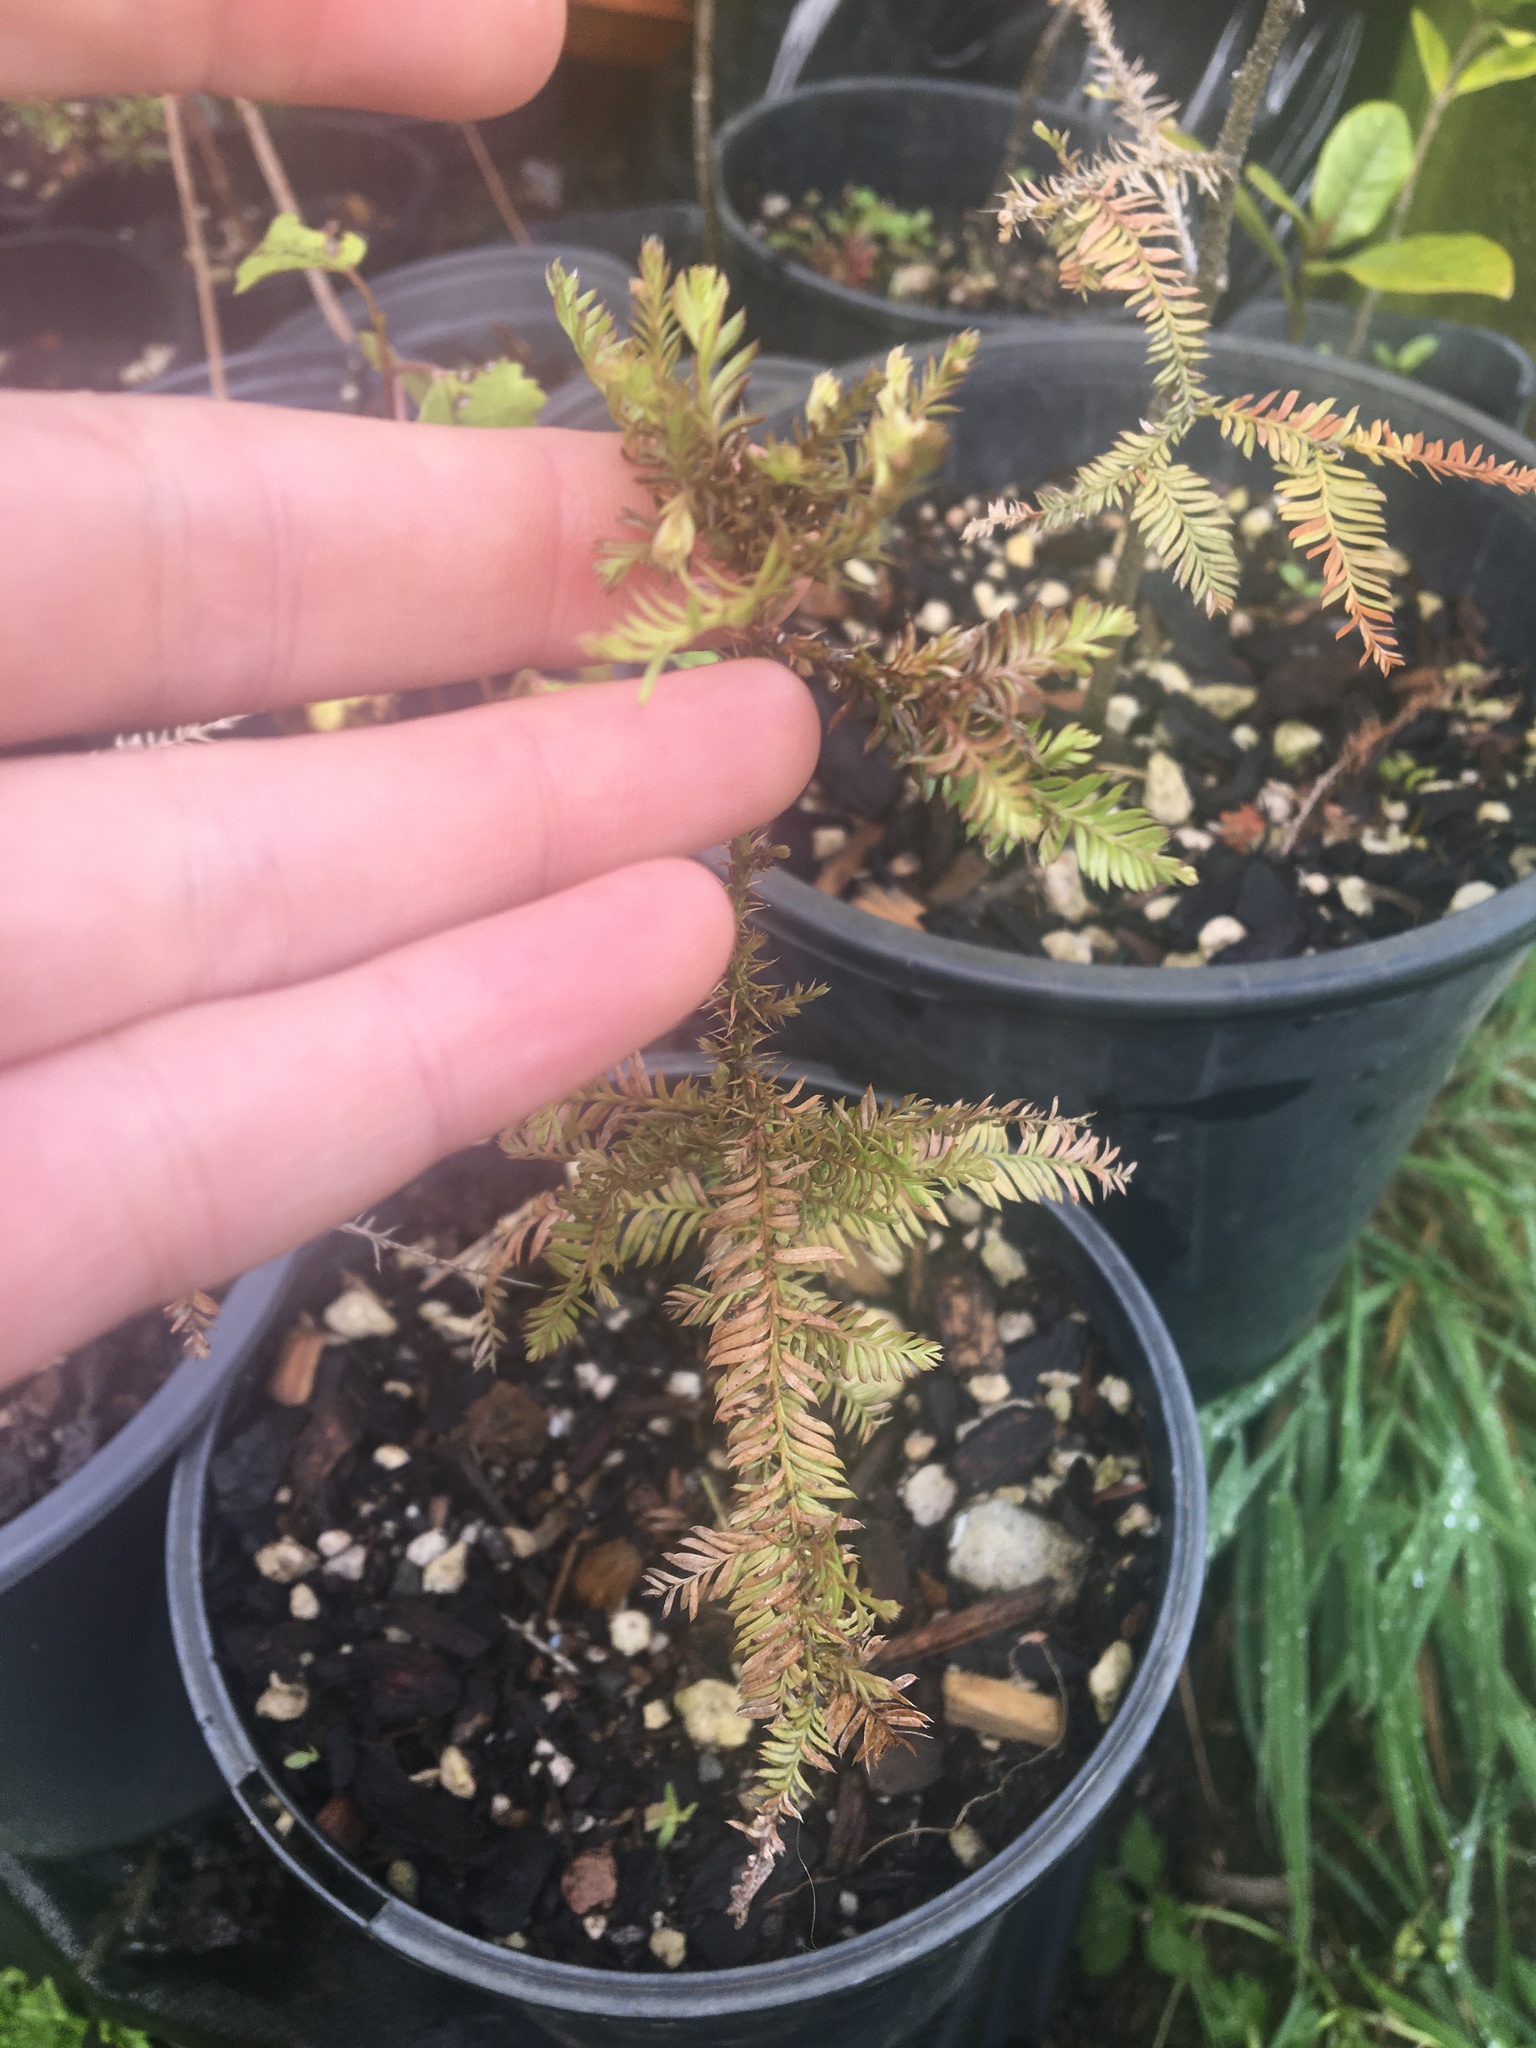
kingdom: Plantae
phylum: Tracheophyta
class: Pinopsida
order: Pinales
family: Podocarpaceae
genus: Dacrycarpus
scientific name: Dacrycarpus dacrydioides
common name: White pine
